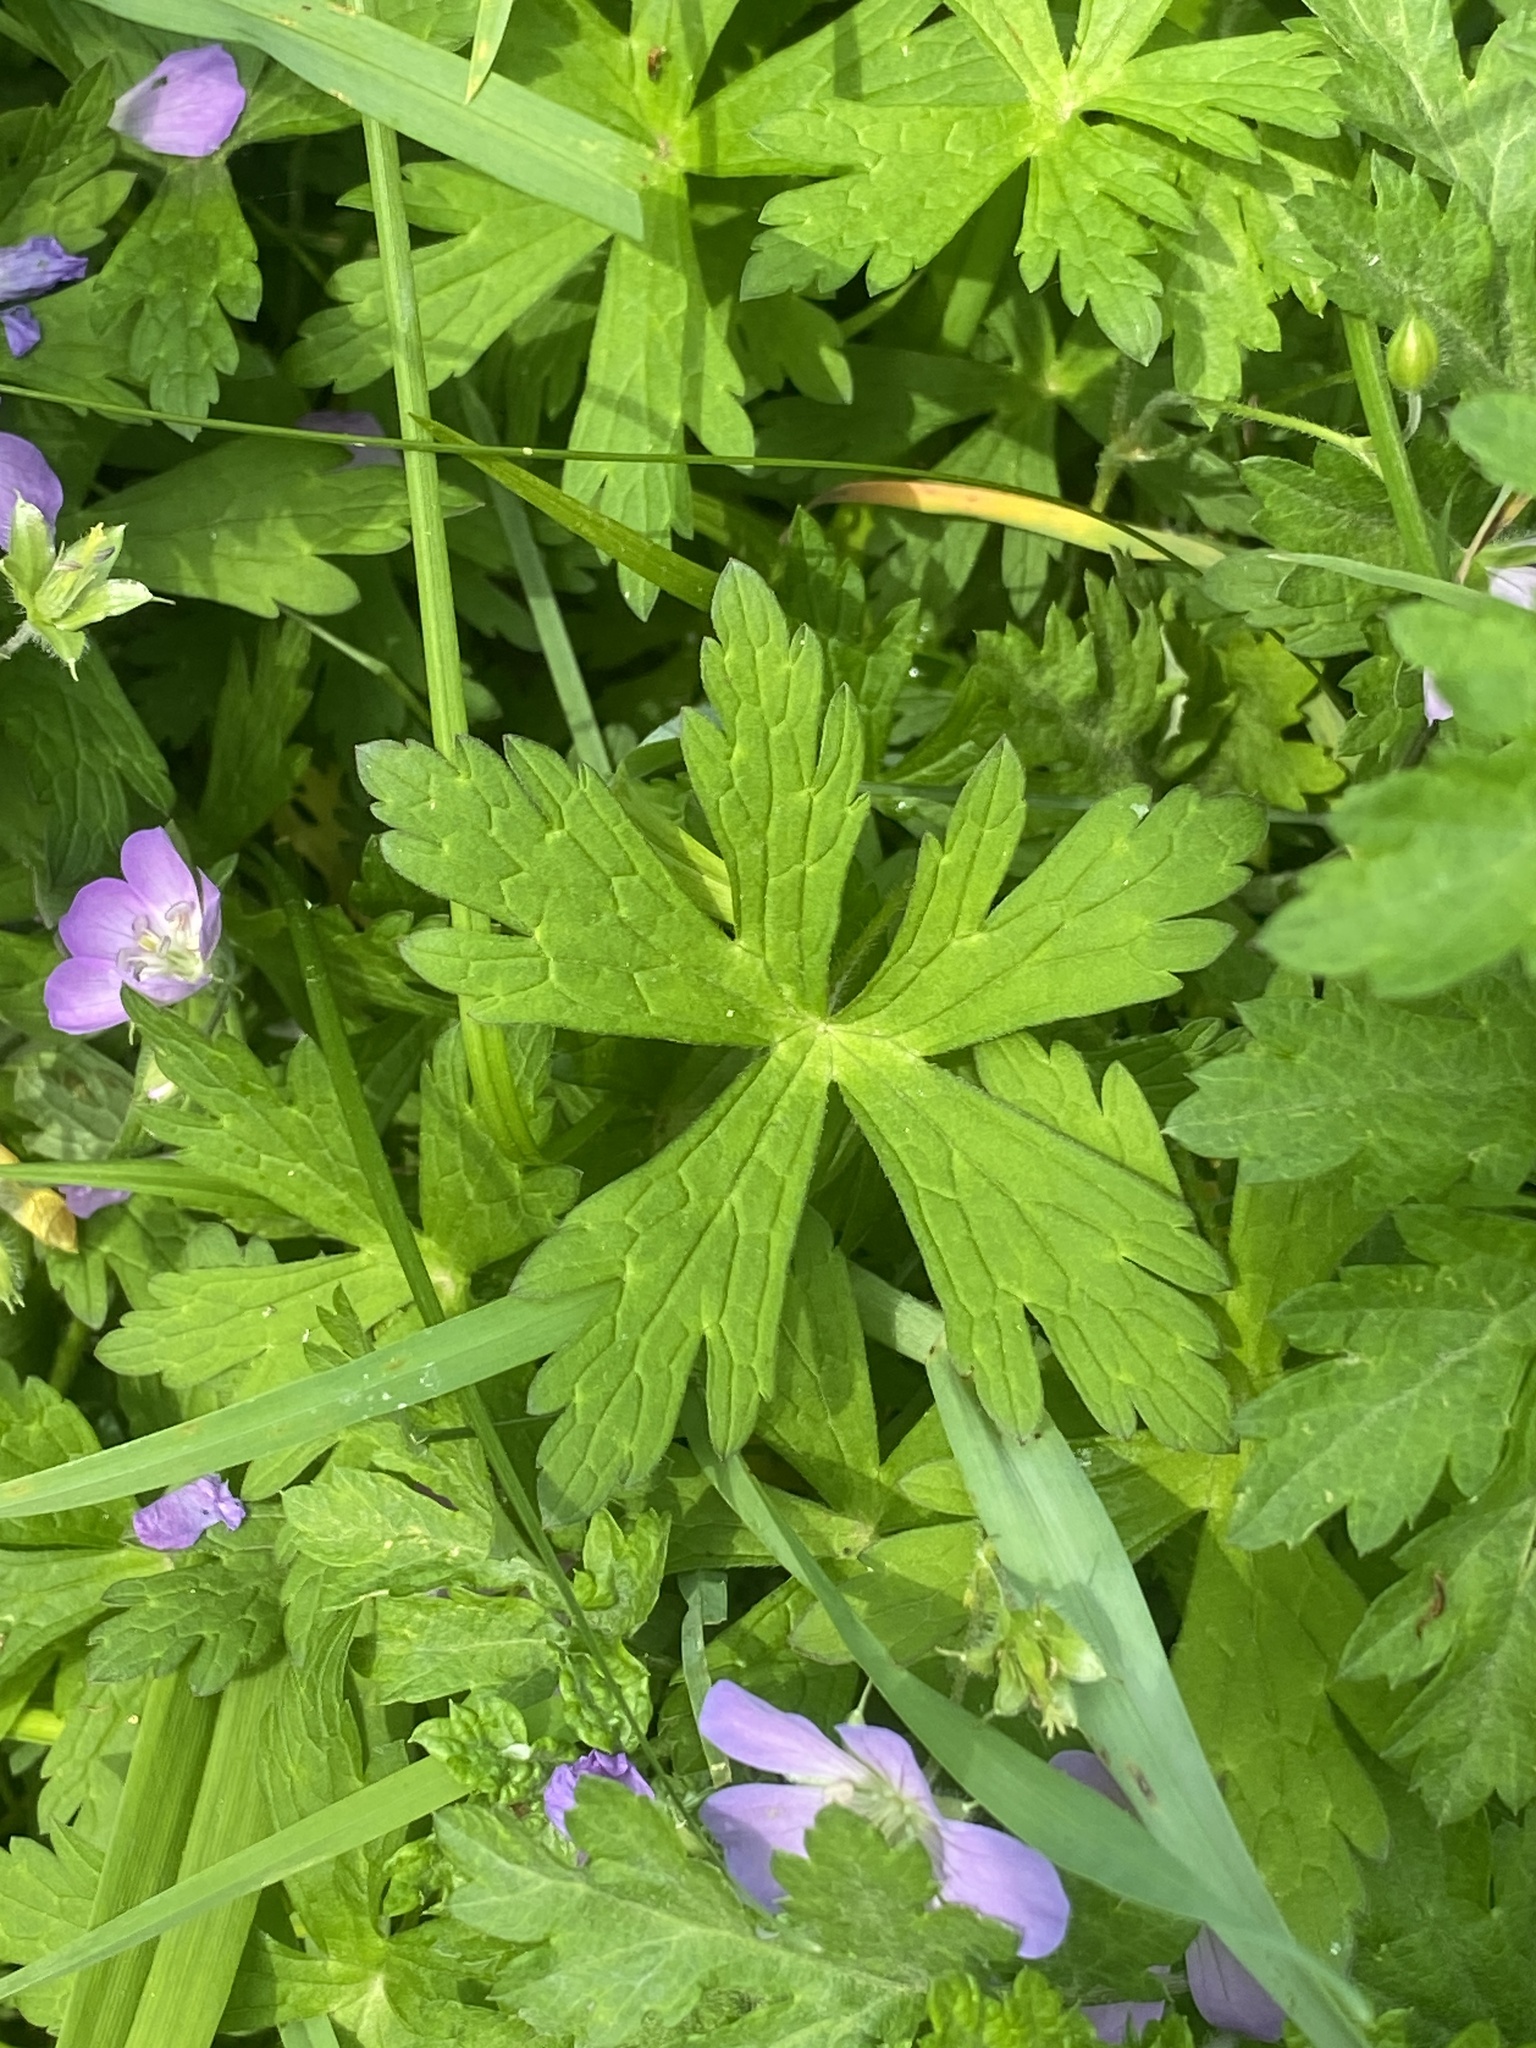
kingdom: Plantae
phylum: Tracheophyta
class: Magnoliopsida
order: Geraniales
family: Geraniaceae
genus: Geranium
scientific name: Geranium maculatum
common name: Spotted geranium
